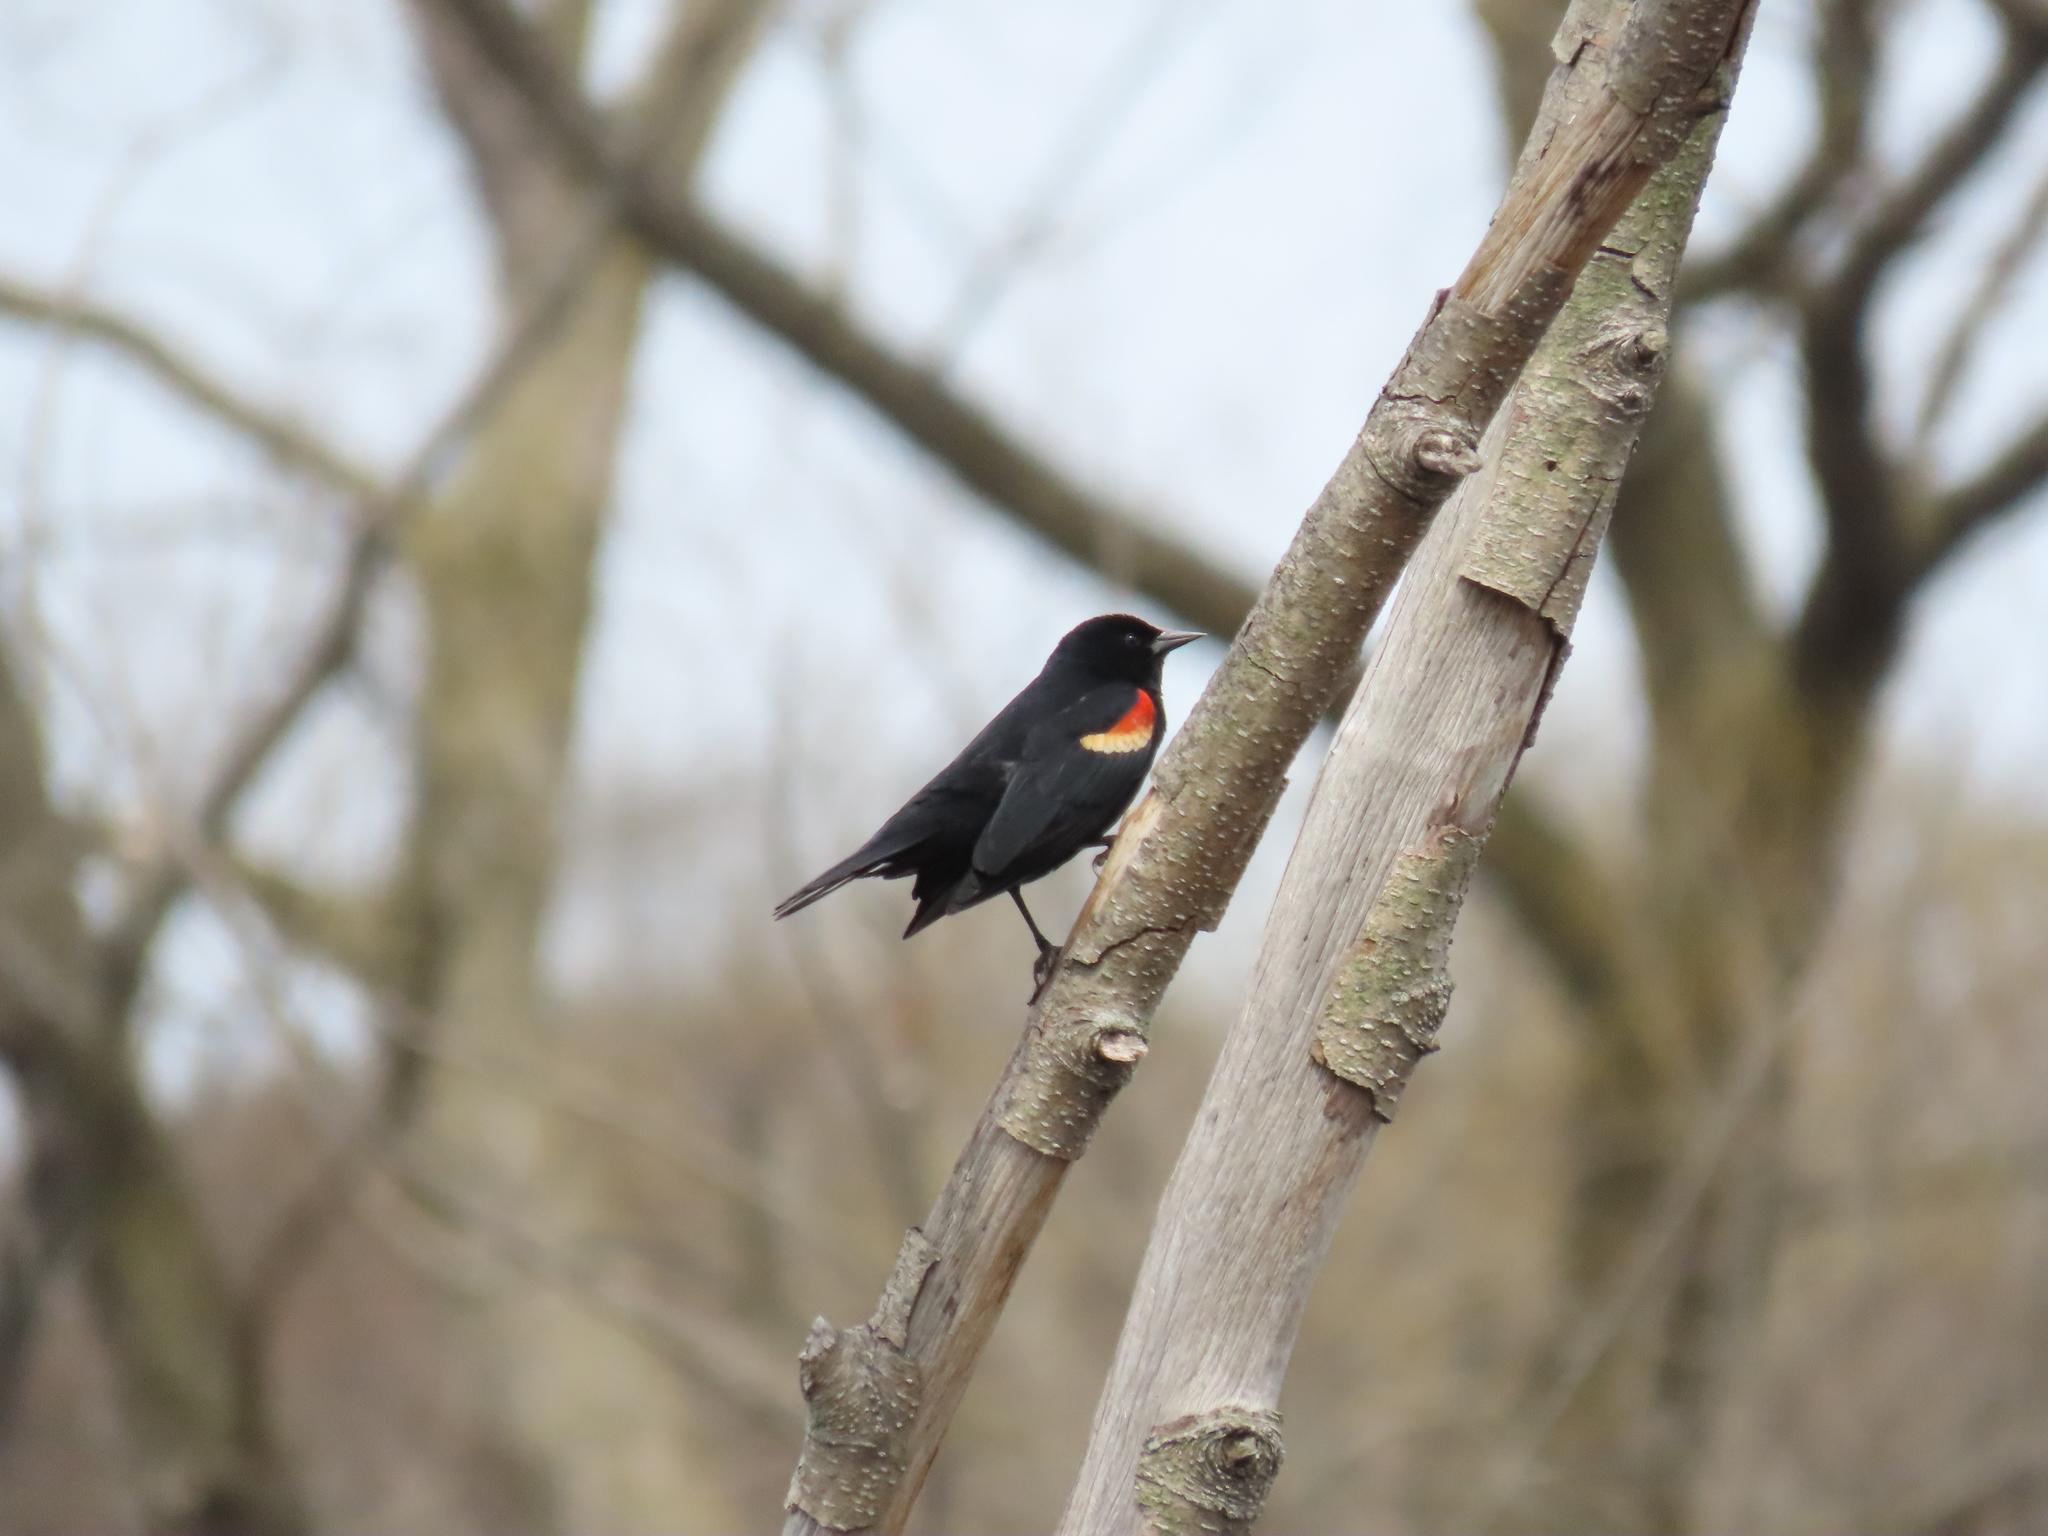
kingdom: Animalia
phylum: Chordata
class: Aves
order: Passeriformes
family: Icteridae
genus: Agelaius
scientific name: Agelaius phoeniceus
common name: Red-winged blackbird
